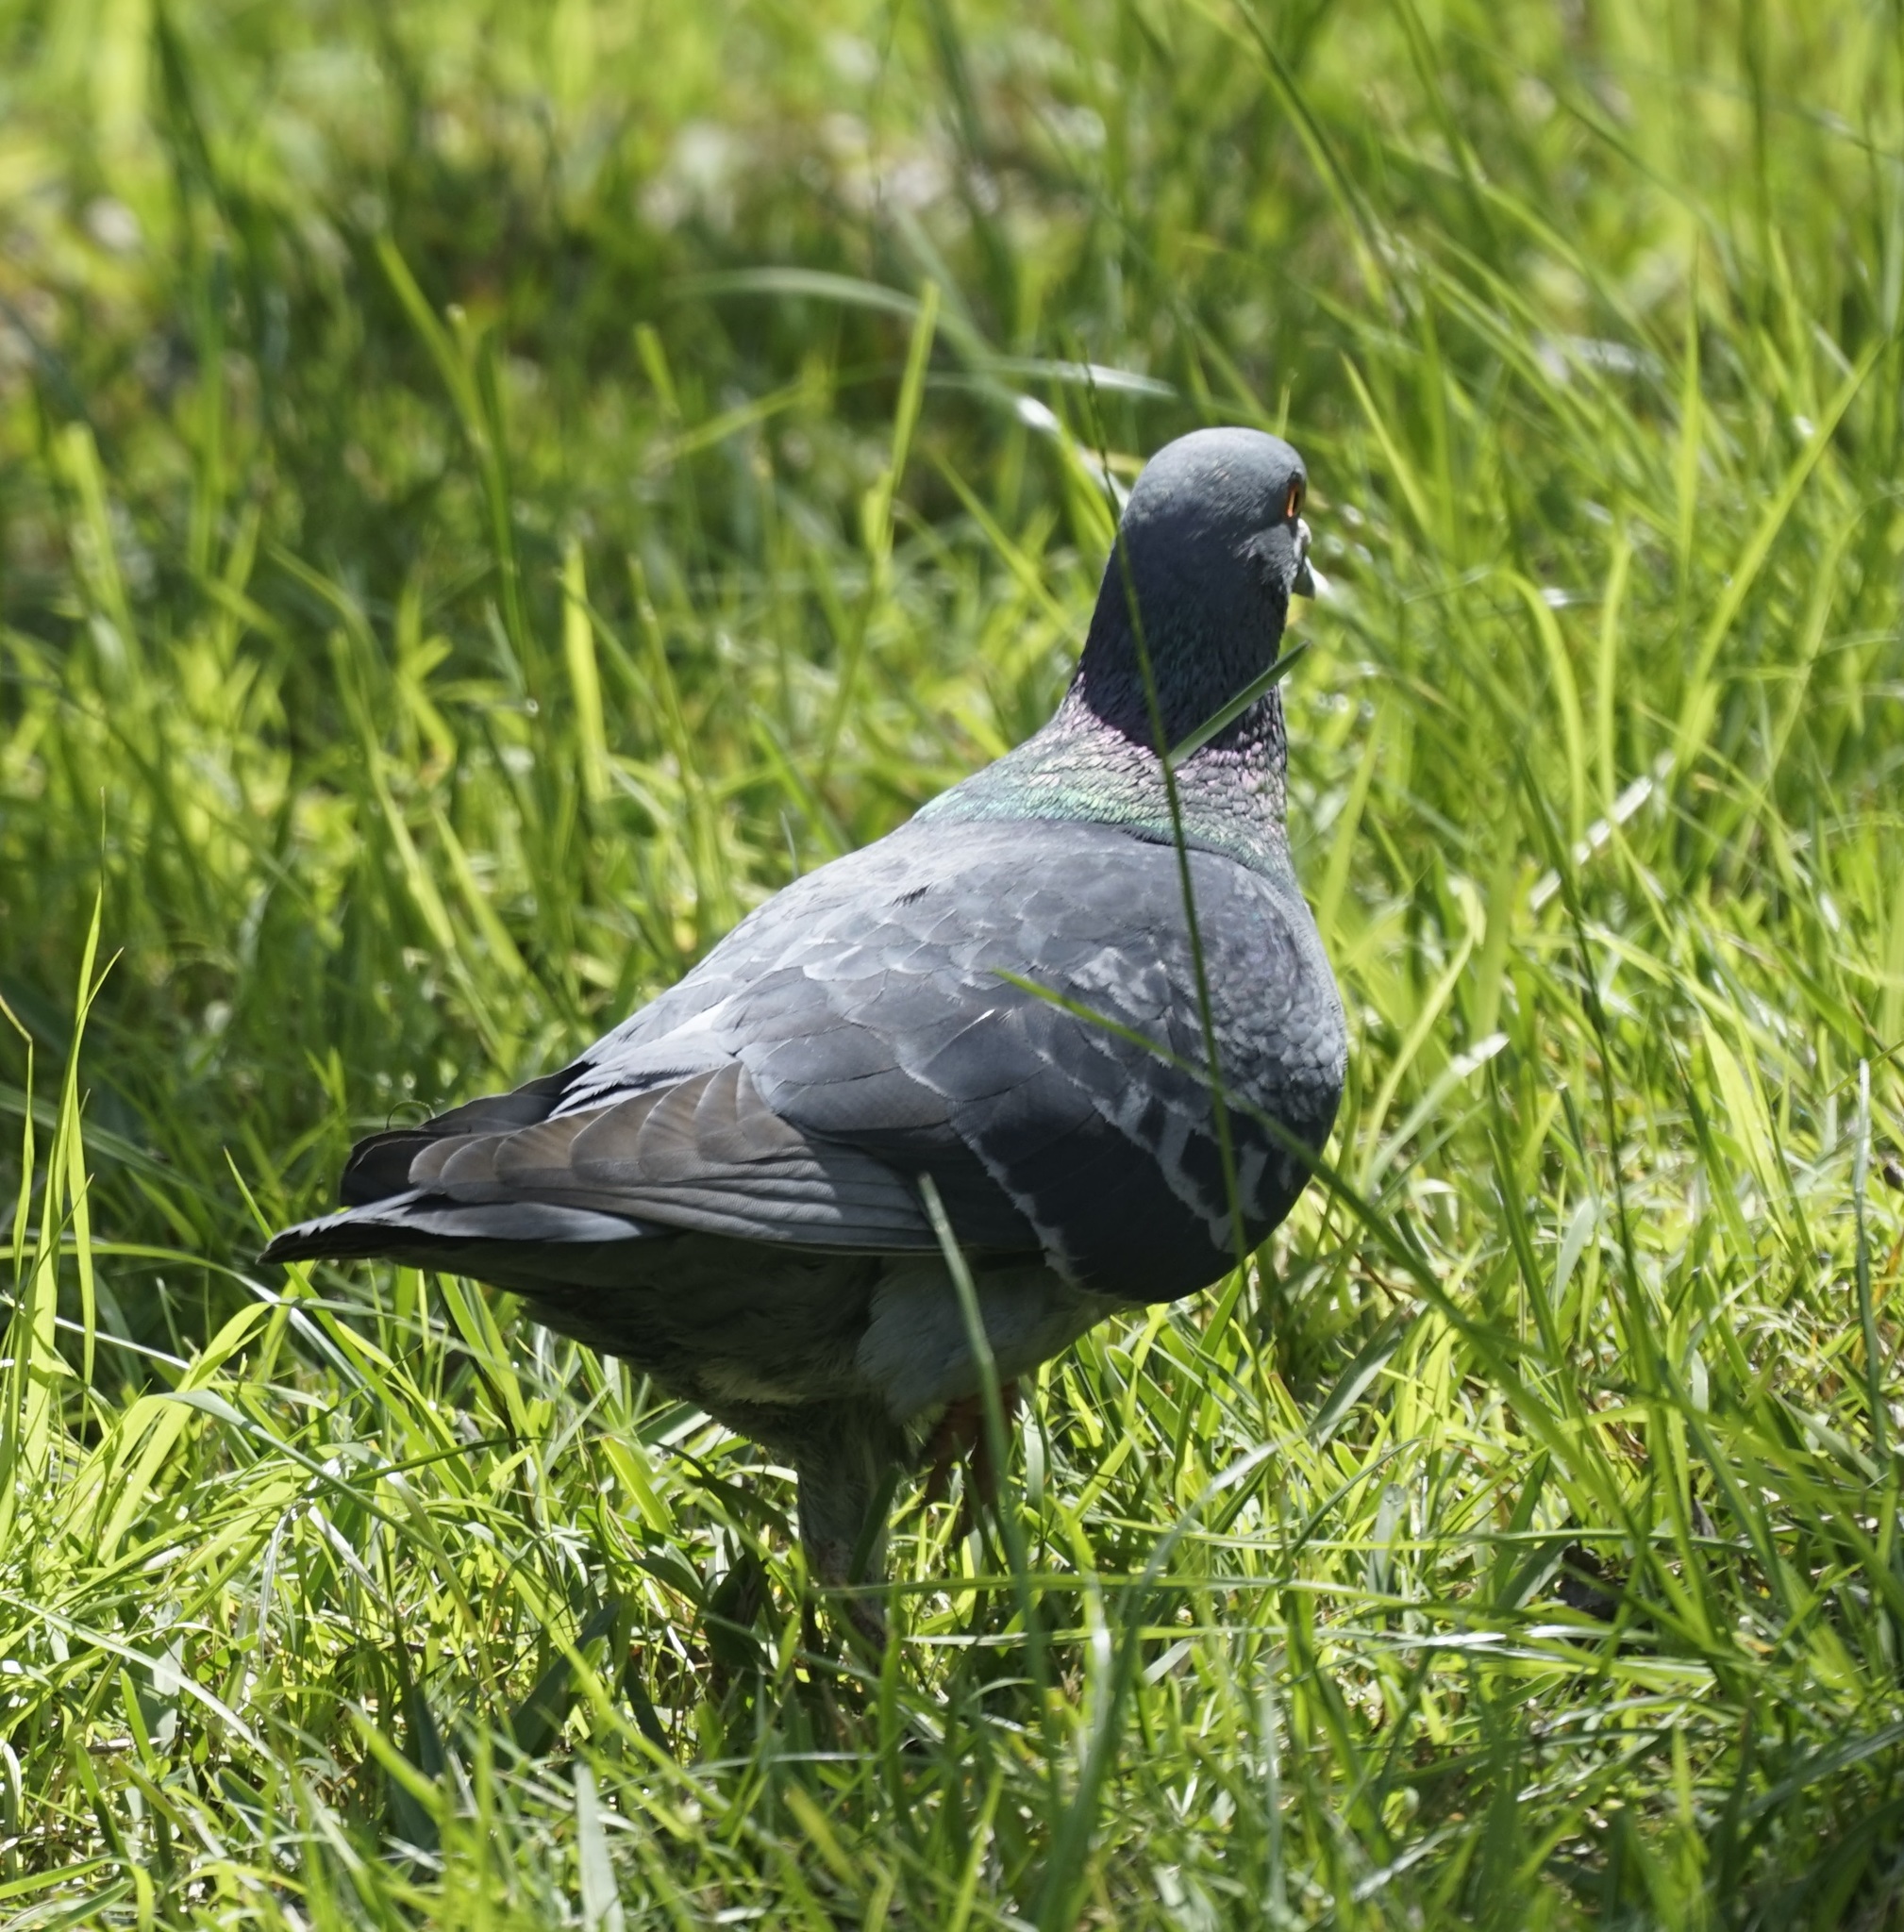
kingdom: Animalia
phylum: Chordata
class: Aves
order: Columbiformes
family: Columbidae
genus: Columba
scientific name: Columba livia
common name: Rock pigeon
